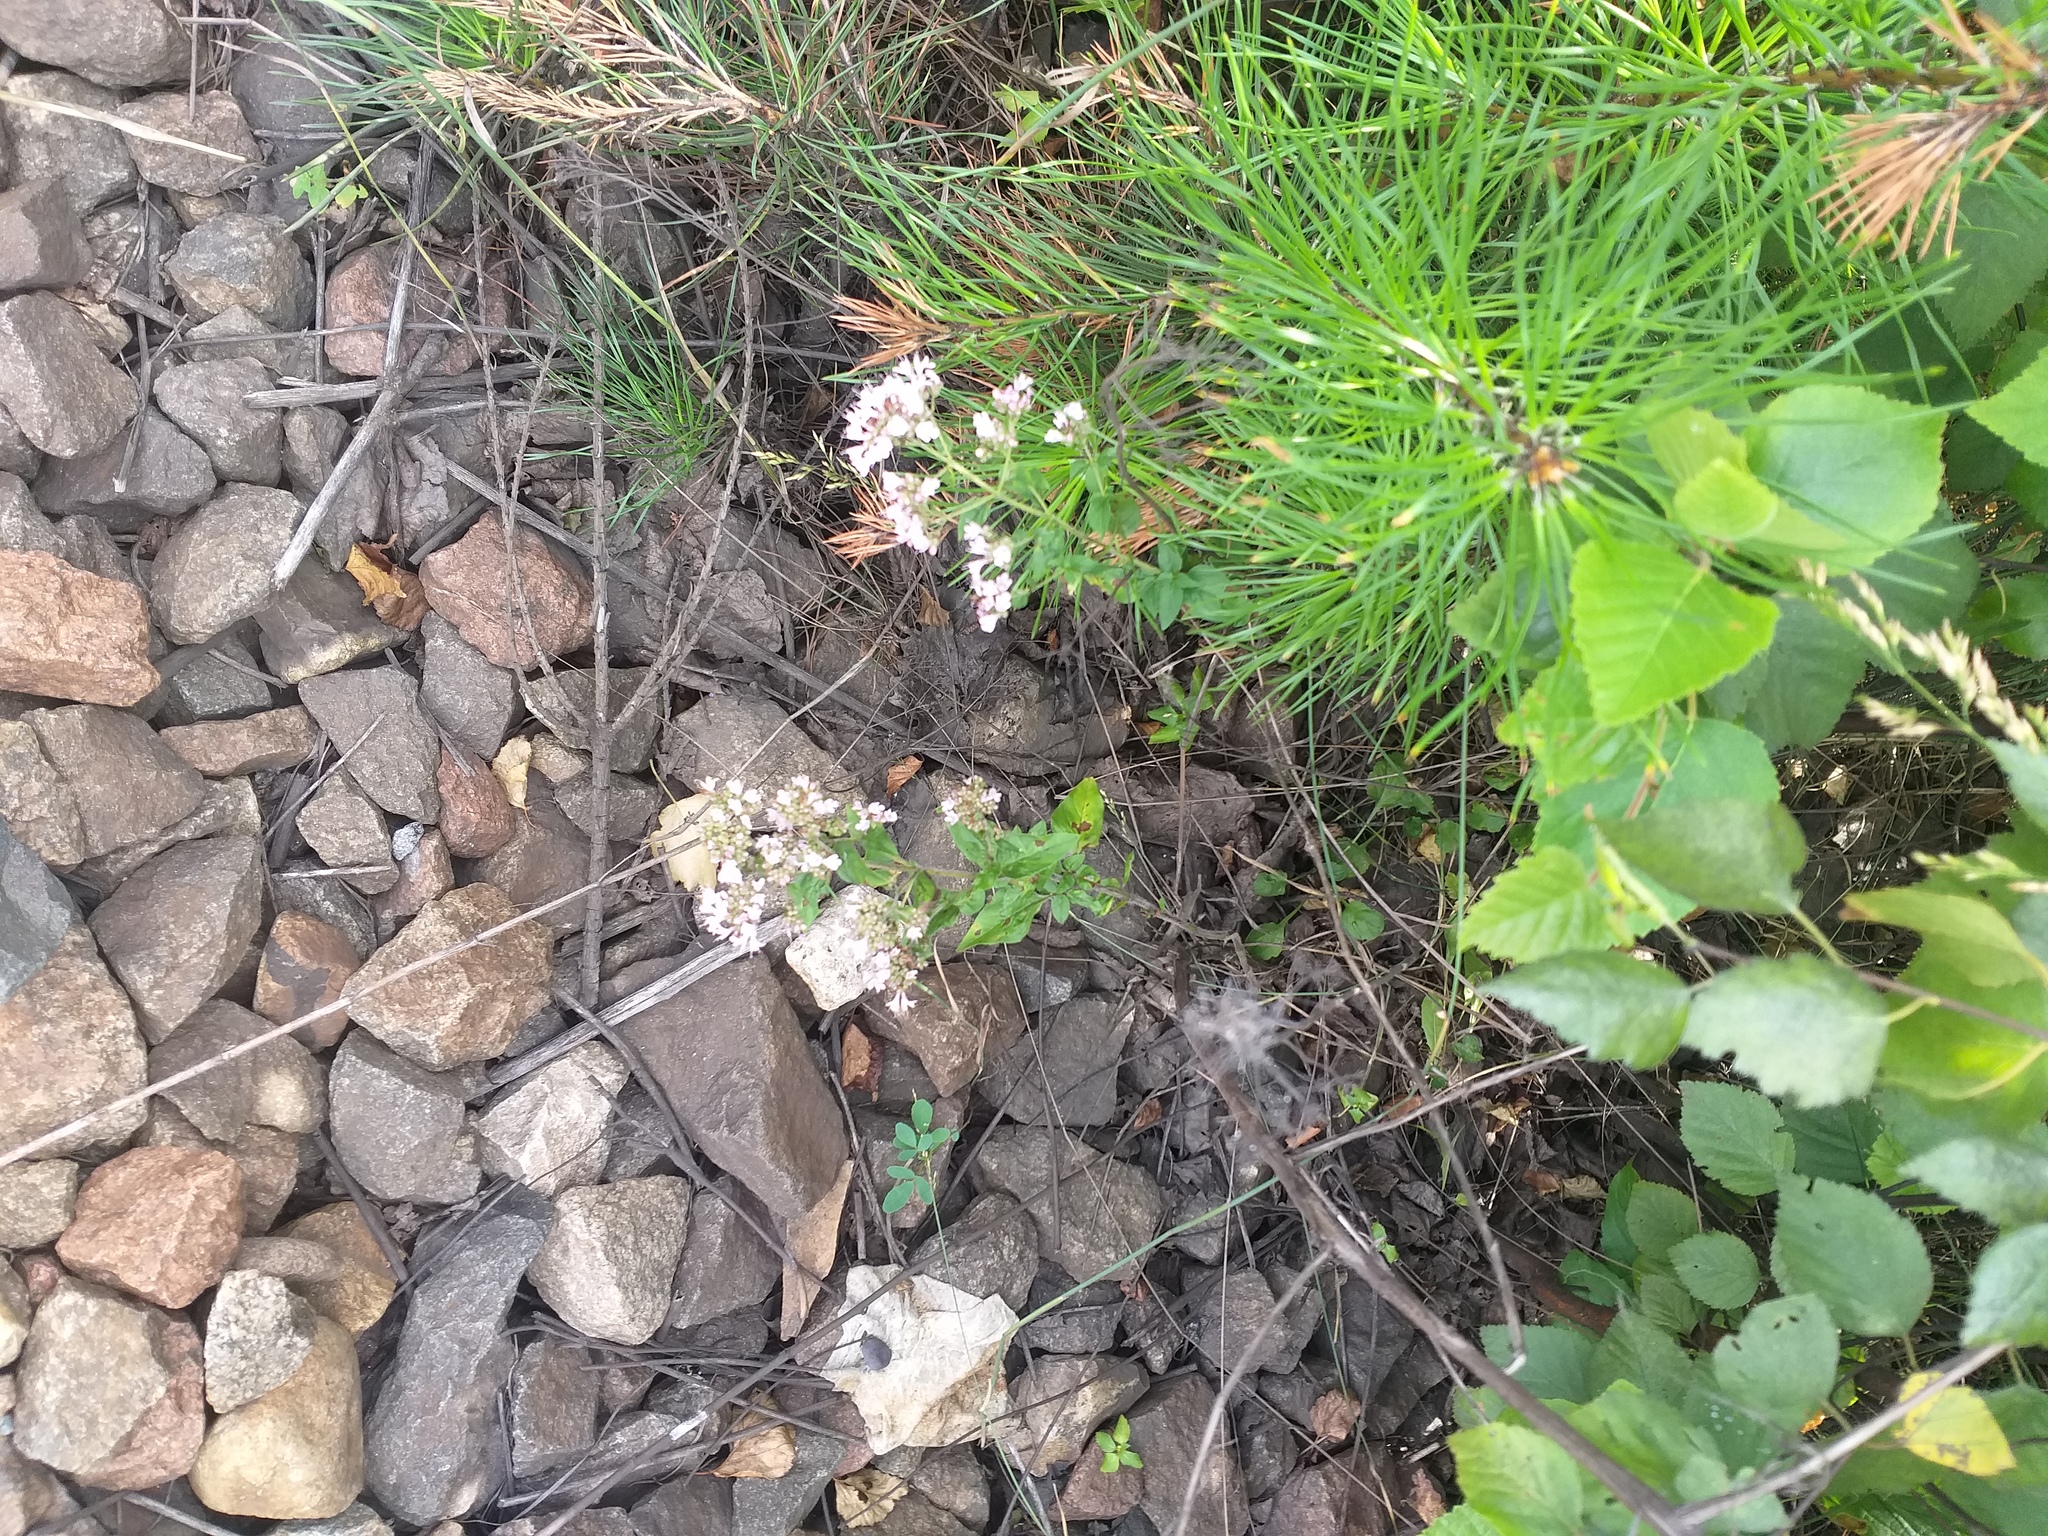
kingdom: Plantae
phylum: Tracheophyta
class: Magnoliopsida
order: Lamiales
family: Lamiaceae
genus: Origanum
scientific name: Origanum vulgare
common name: Wild marjoram
